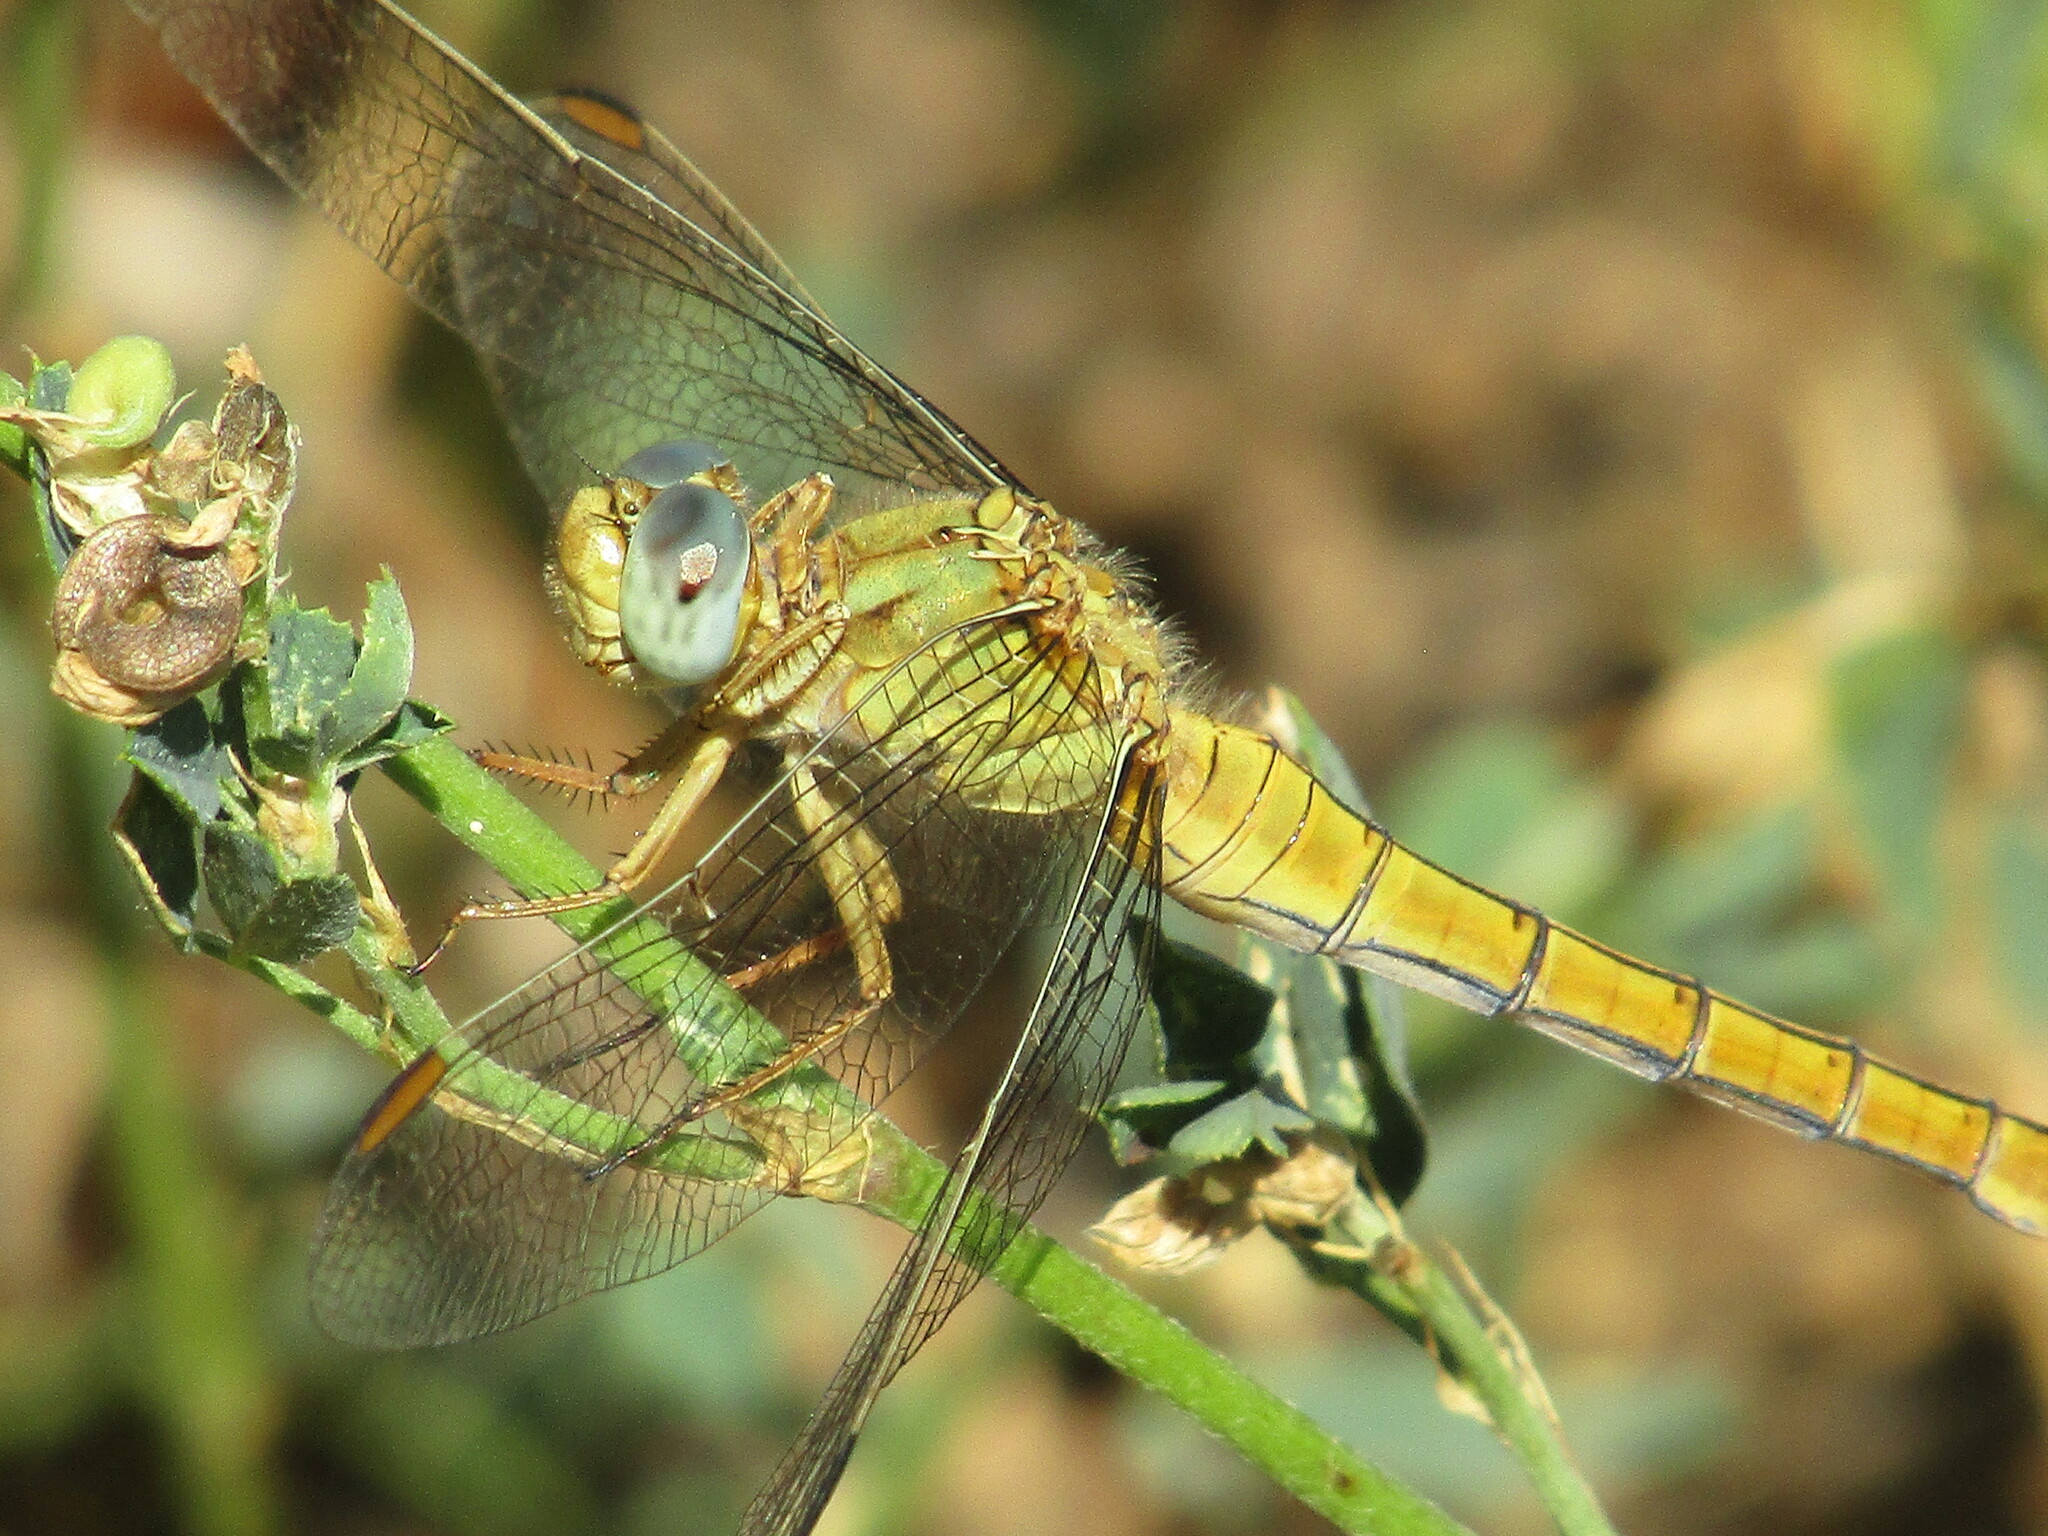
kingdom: Animalia
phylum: Arthropoda
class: Insecta
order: Odonata
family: Libellulidae
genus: Orthetrum
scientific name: Orthetrum coerulescens
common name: Keeled skimmer
